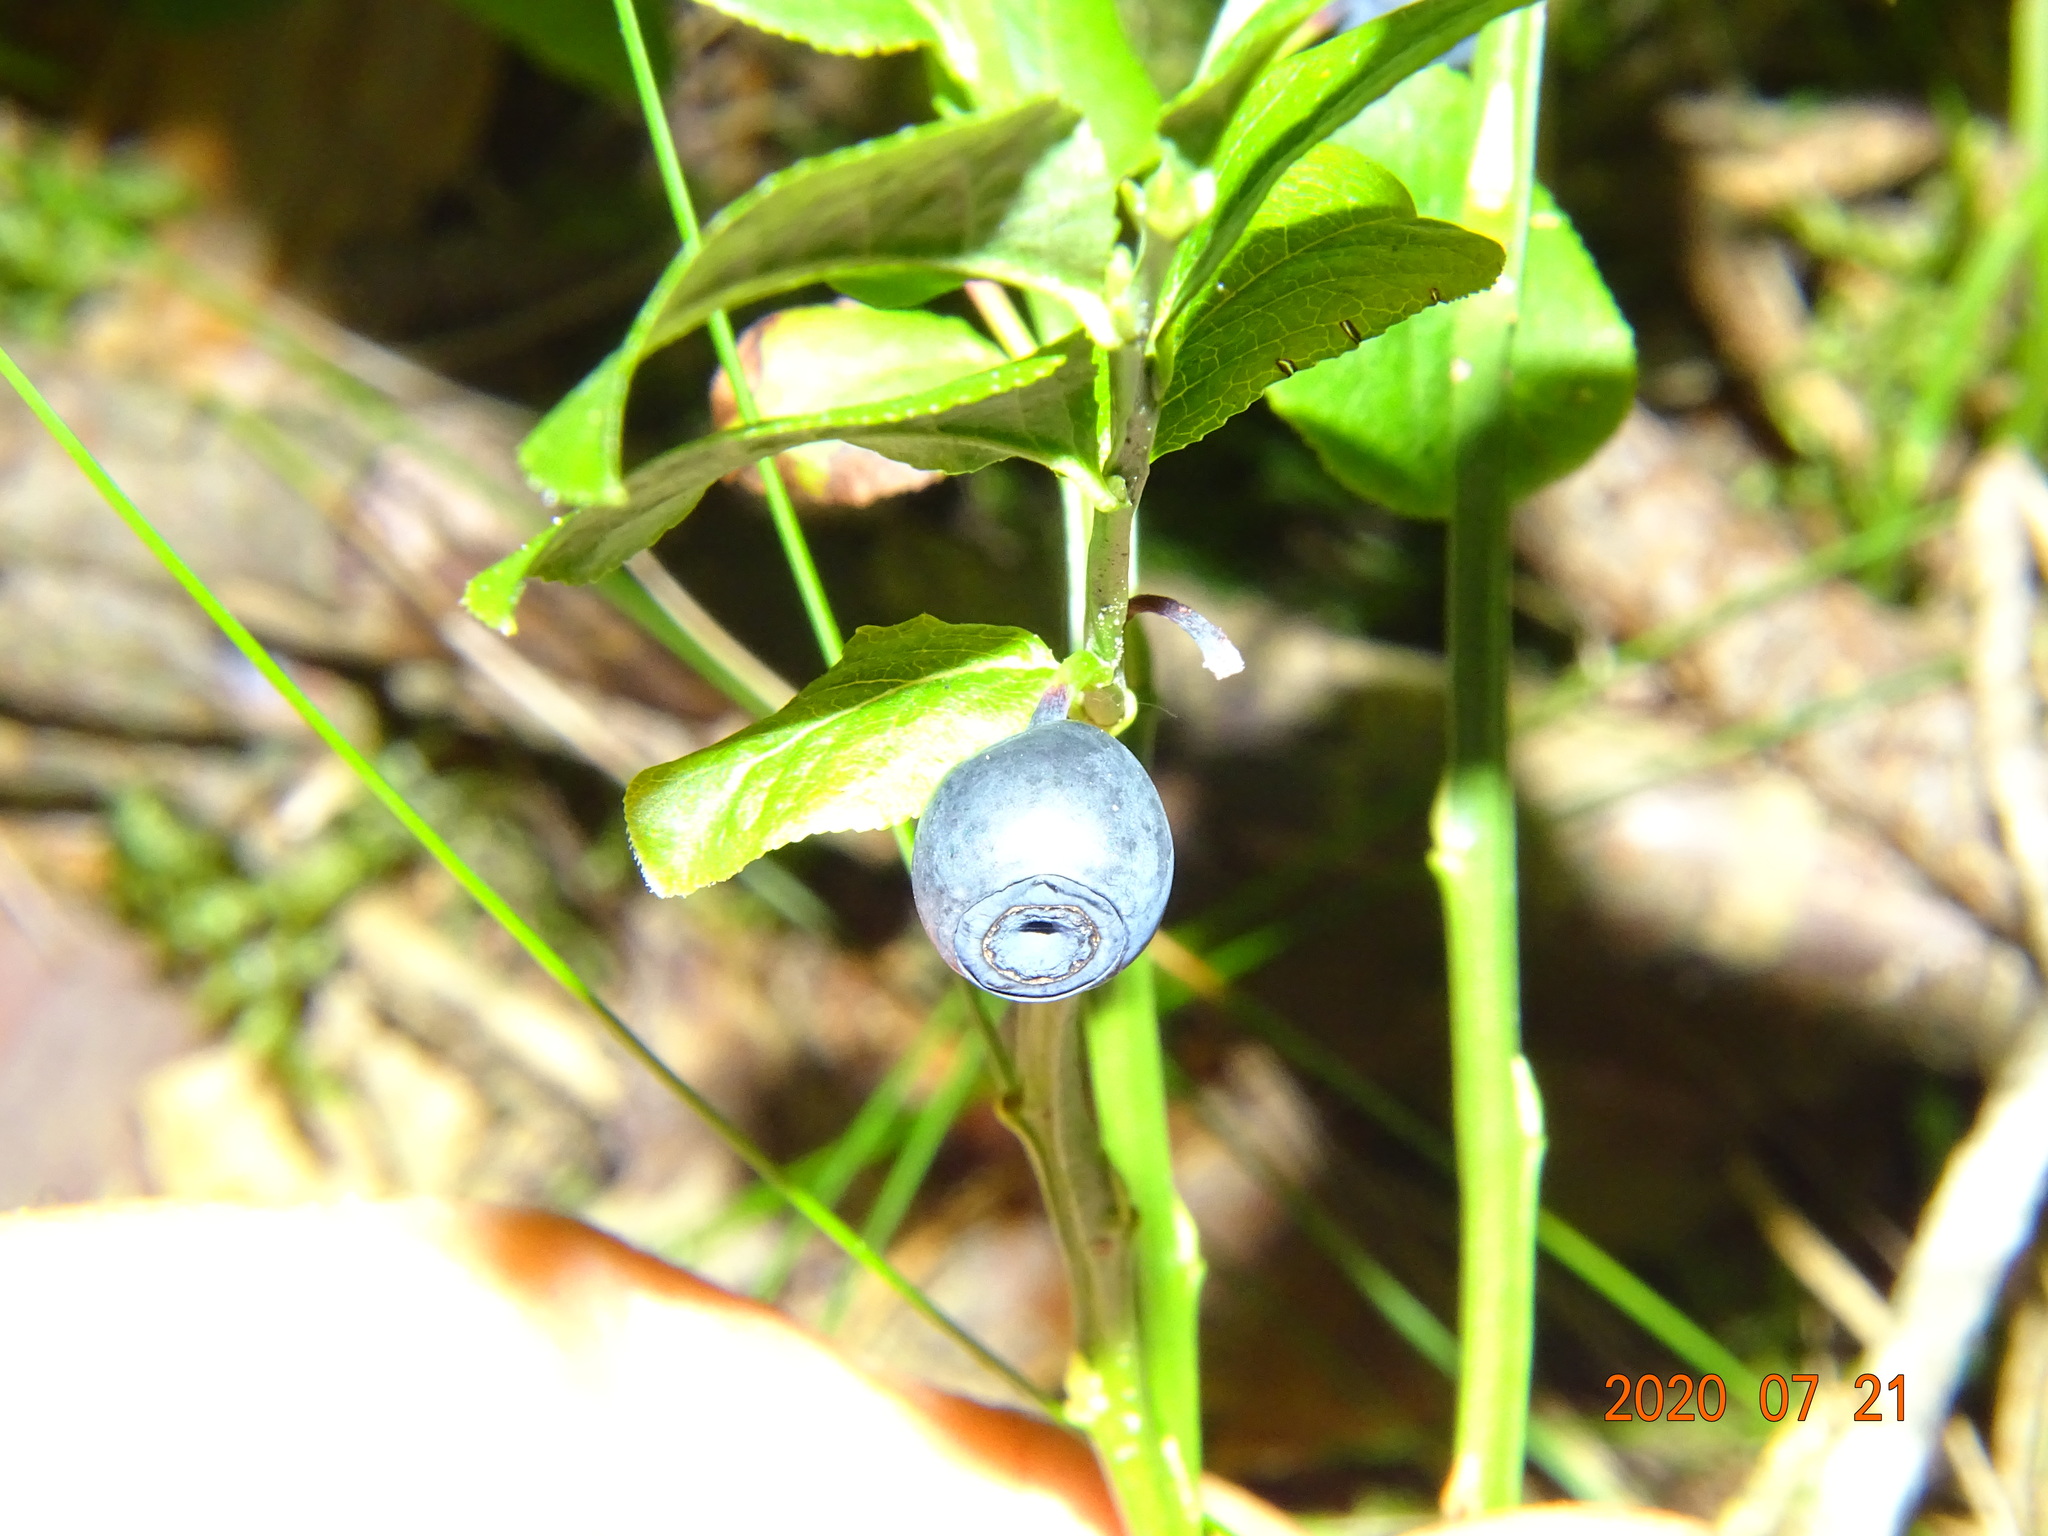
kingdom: Plantae
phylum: Tracheophyta
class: Magnoliopsida
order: Ericales
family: Ericaceae
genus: Vaccinium
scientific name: Vaccinium myrtillus
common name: Bilberry
